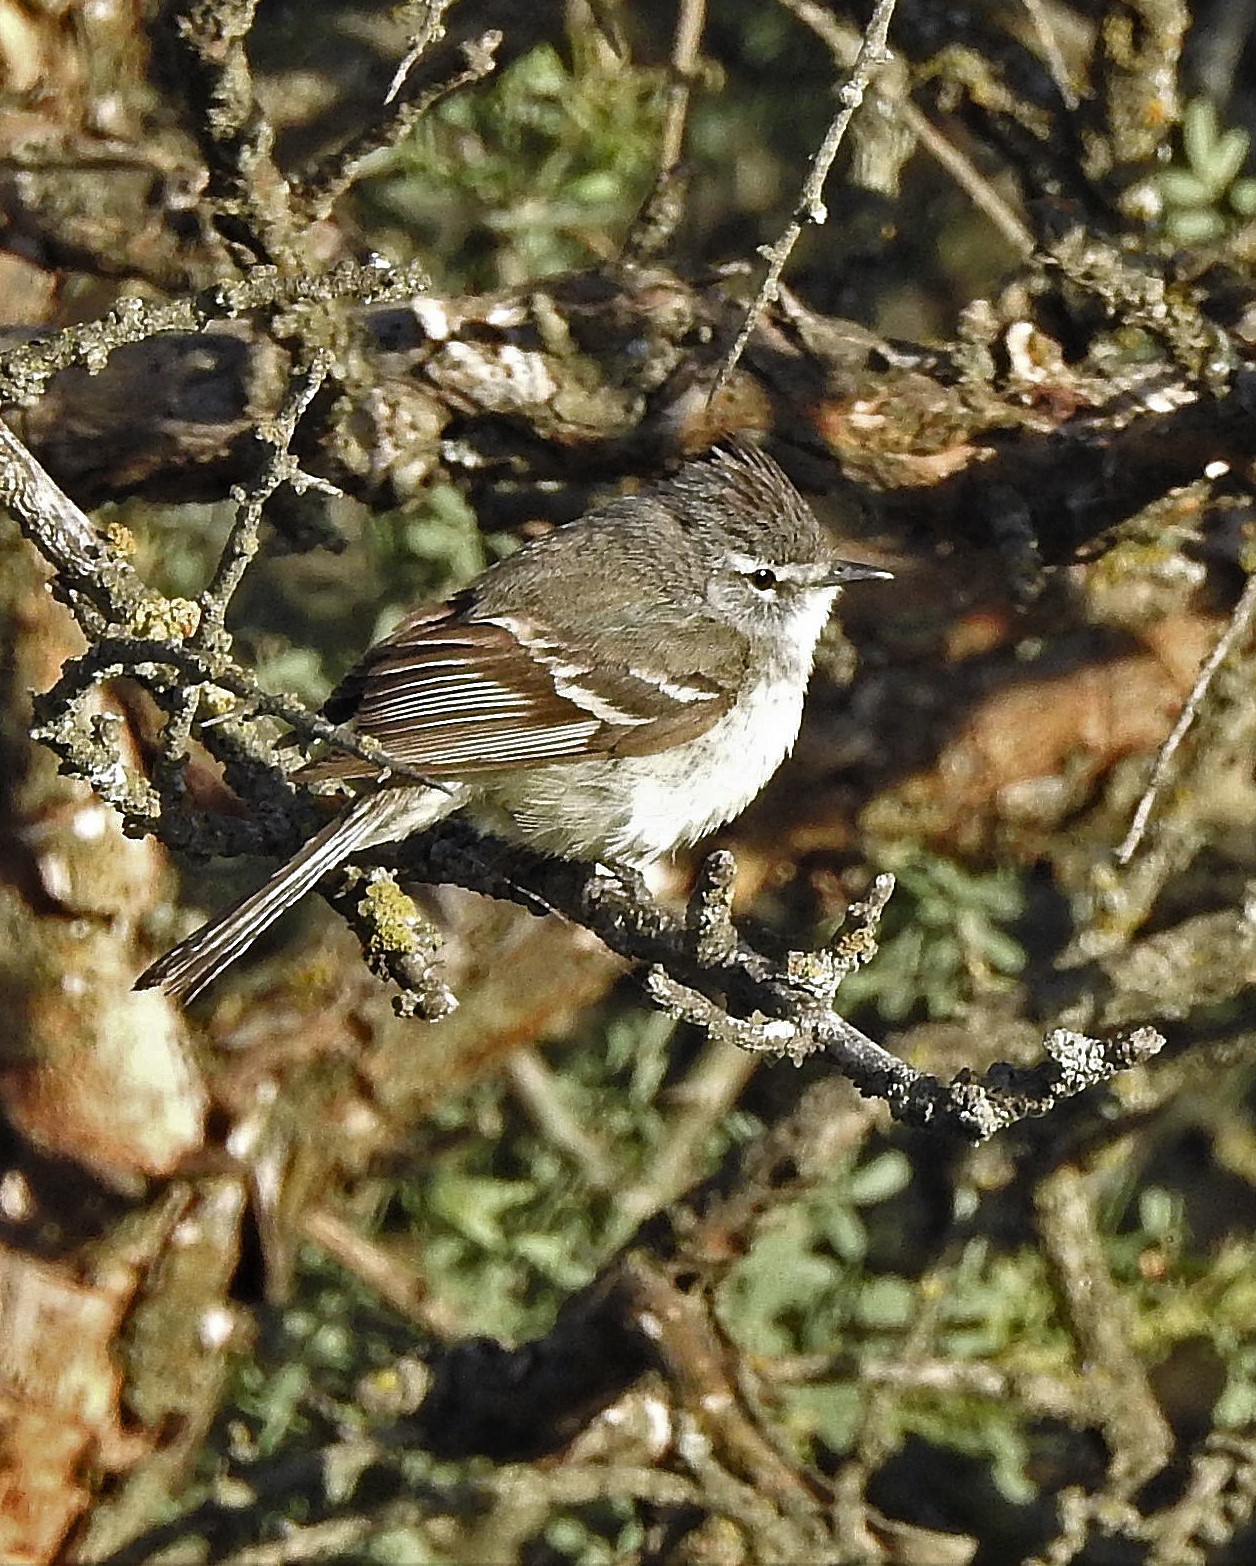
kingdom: Animalia
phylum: Chordata
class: Aves
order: Passeriformes
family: Tyrannidae
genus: Serpophaga
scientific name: Serpophaga griseicapilla
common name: Straneck's tyrannulet
